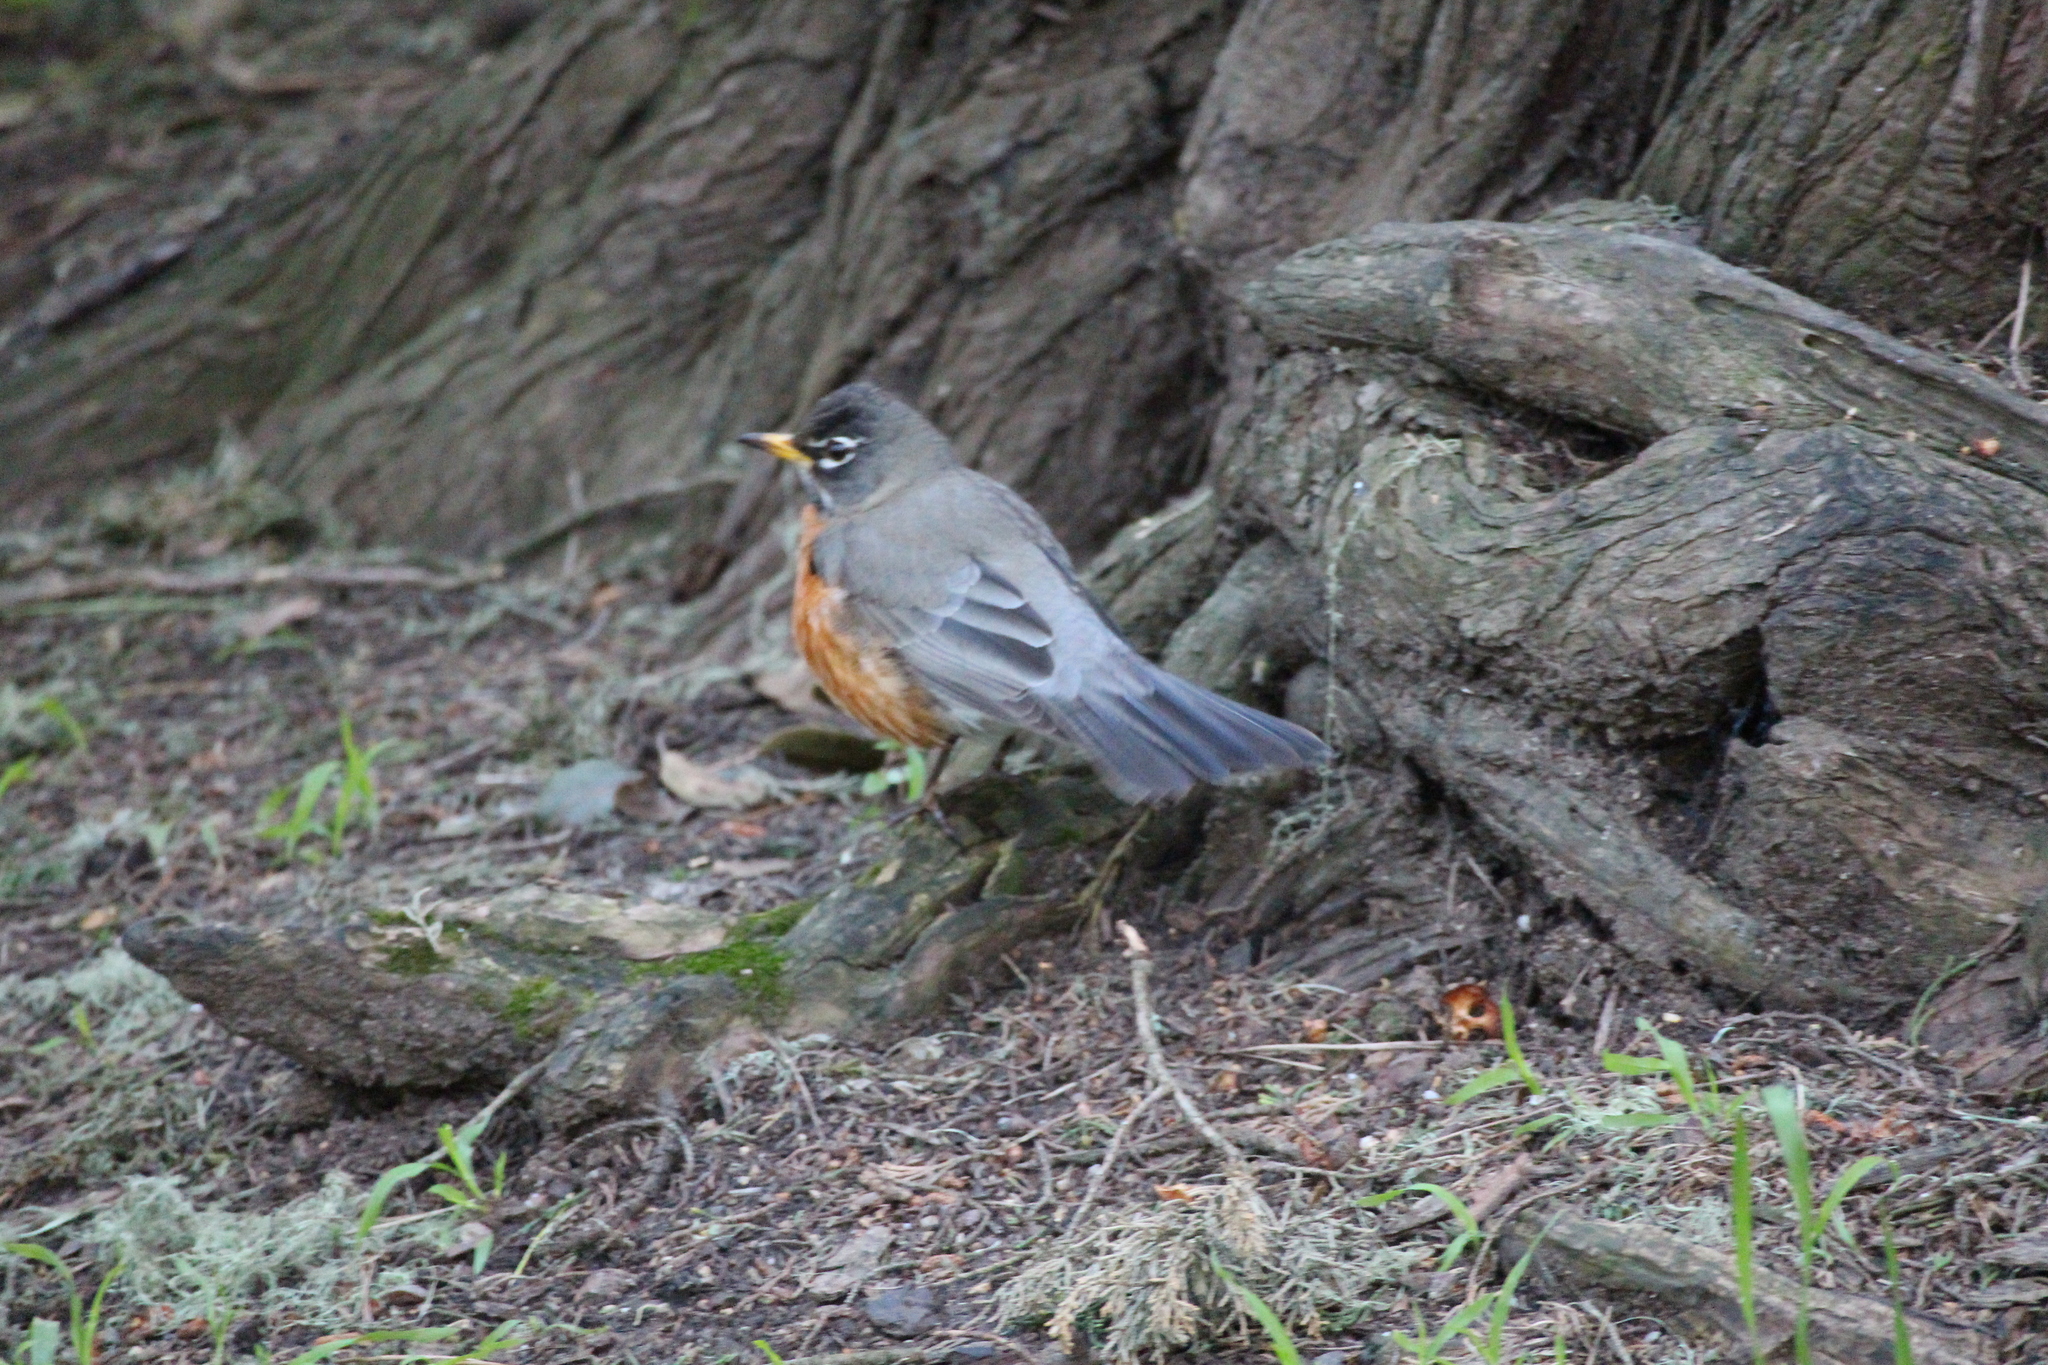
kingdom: Animalia
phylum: Chordata
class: Aves
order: Passeriformes
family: Turdidae
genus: Turdus
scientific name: Turdus migratorius
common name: American robin
